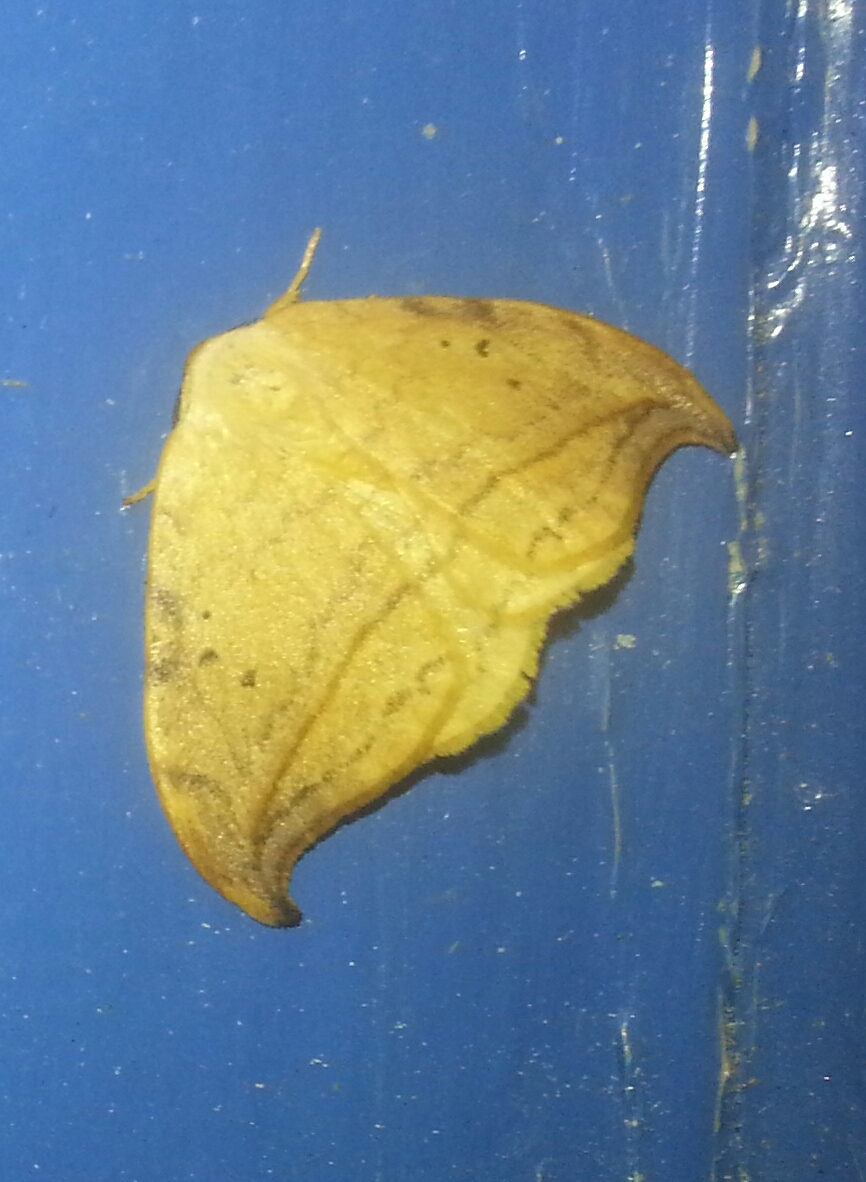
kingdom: Animalia
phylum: Arthropoda
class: Insecta
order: Lepidoptera
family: Drepanidae
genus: Drepana
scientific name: Drepana arcuata
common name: Arched hooktip moth
